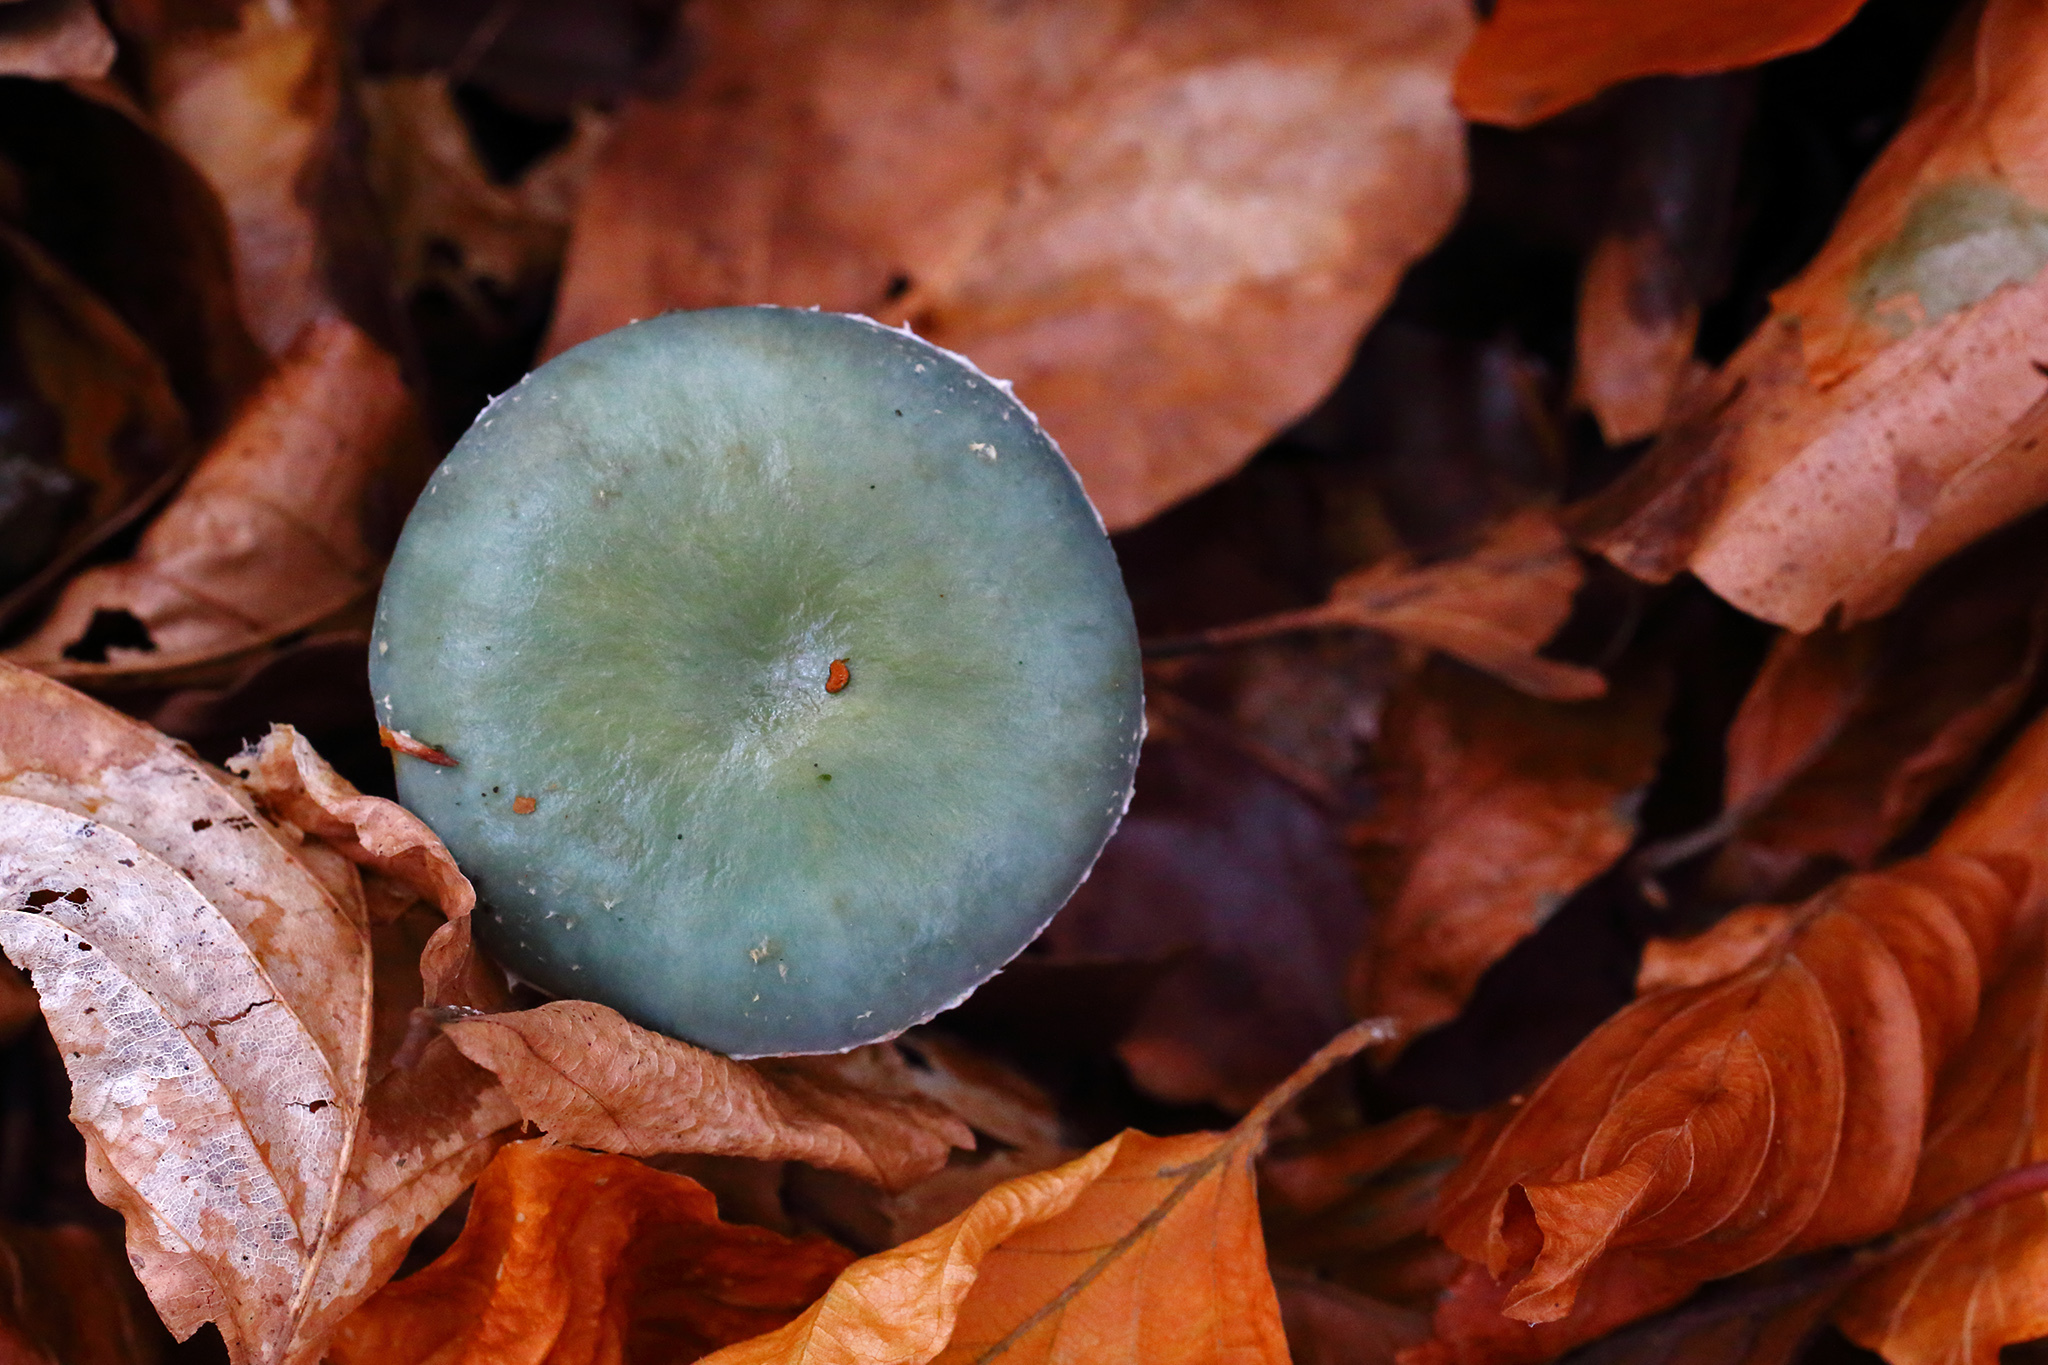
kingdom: Fungi
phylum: Basidiomycota
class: Agaricomycetes
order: Agaricales
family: Strophariaceae
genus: Stropharia
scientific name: Stropharia caerulea
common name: Blue roundhead
